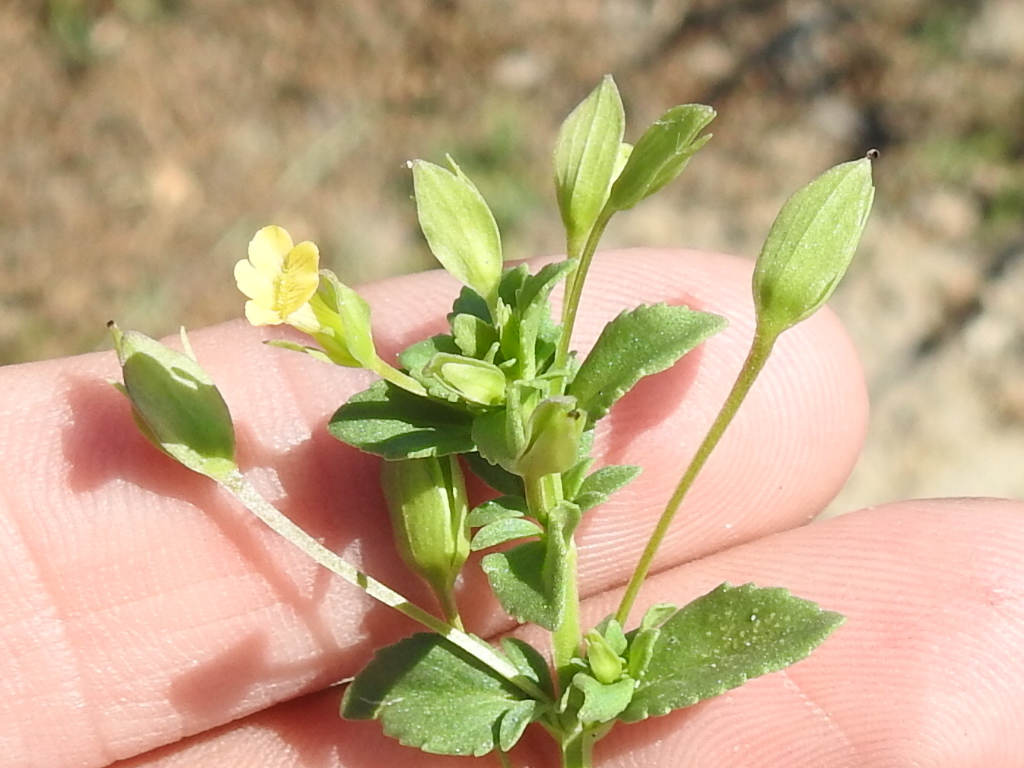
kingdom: Plantae
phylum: Tracheophyta
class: Magnoliopsida
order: Lamiales
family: Plantaginaceae
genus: Mecardonia
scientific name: Mecardonia procumbens
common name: Baby jump-up
